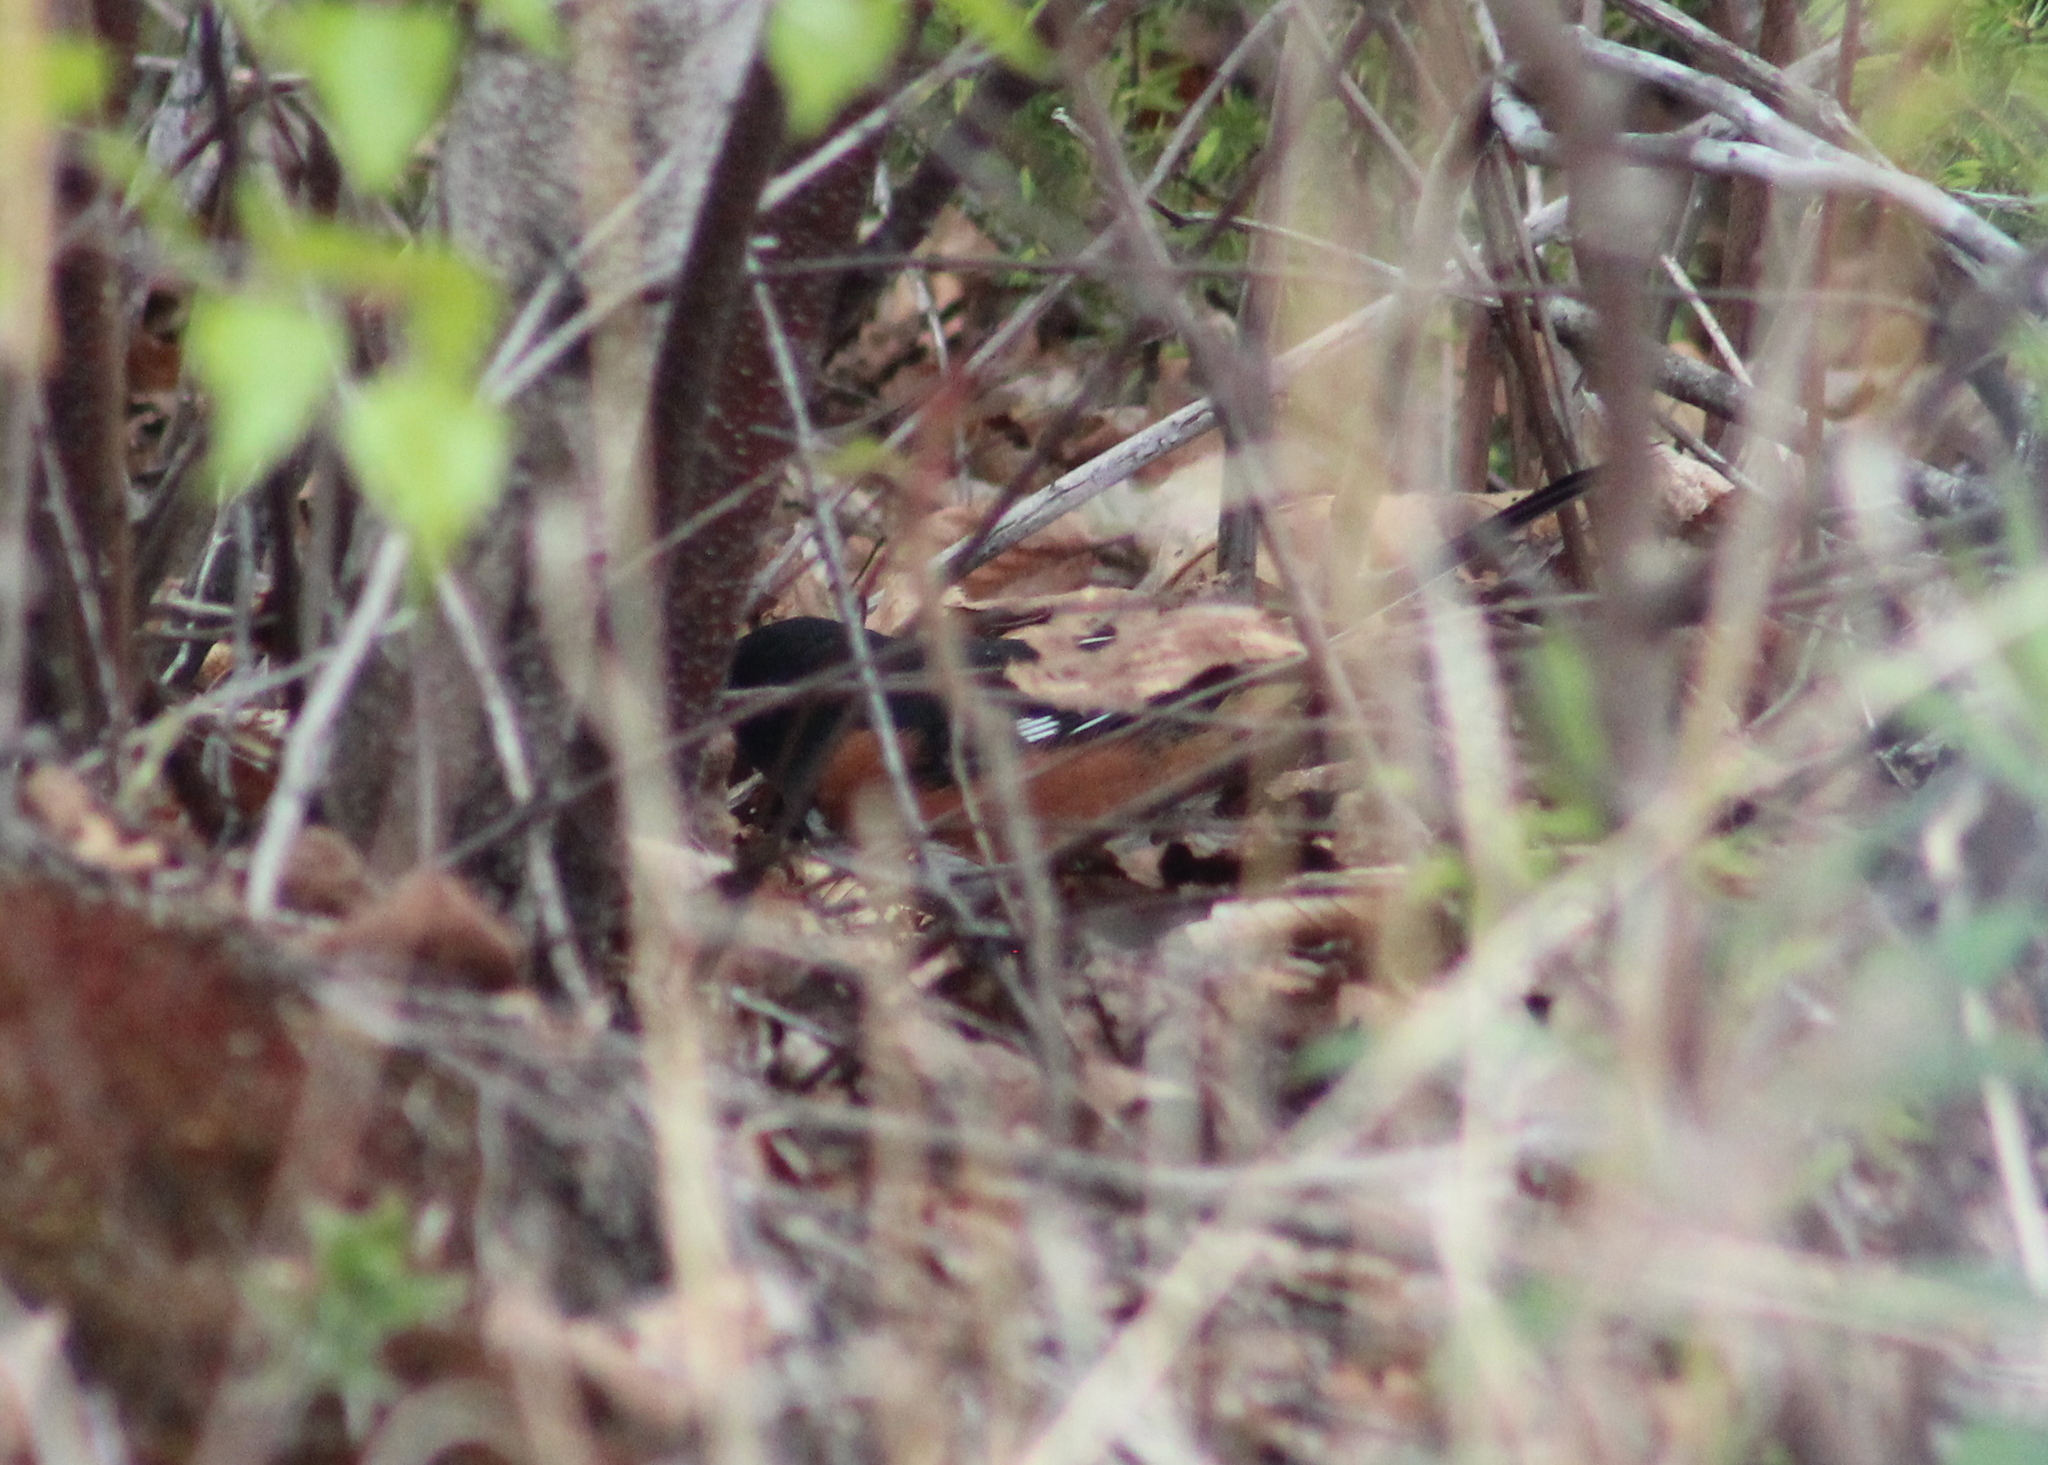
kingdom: Animalia
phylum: Chordata
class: Aves
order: Passeriformes
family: Passerellidae
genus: Pipilo
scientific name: Pipilo erythrophthalmus
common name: Eastern towhee
